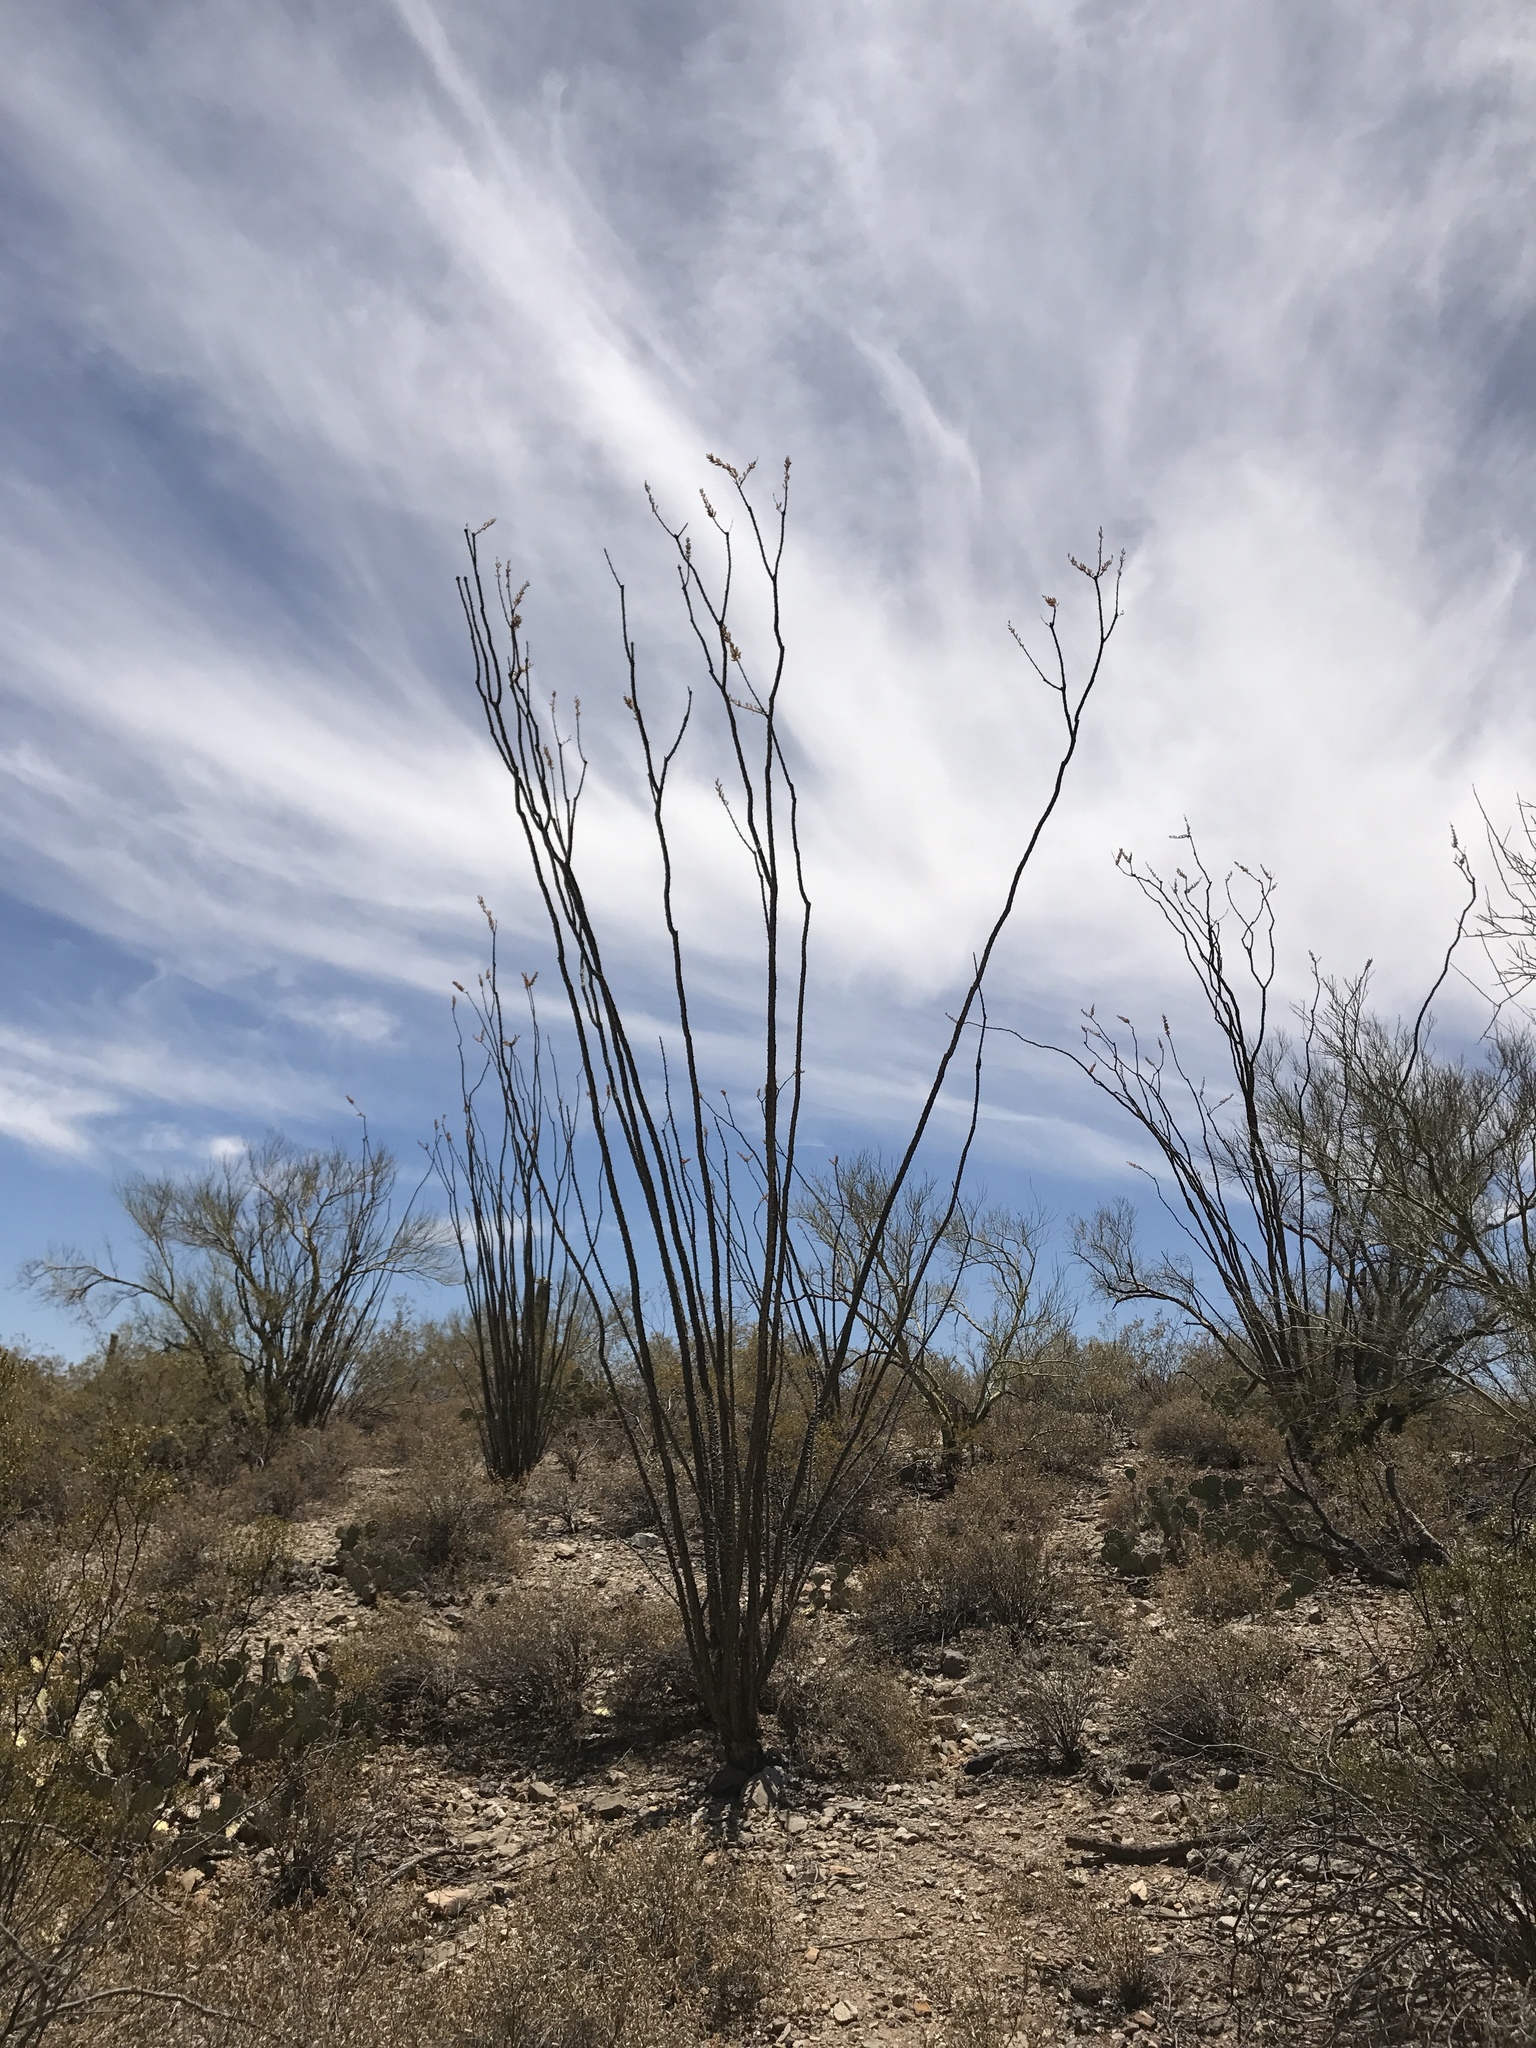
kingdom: Plantae
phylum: Tracheophyta
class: Magnoliopsida
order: Ericales
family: Fouquieriaceae
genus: Fouquieria
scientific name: Fouquieria splendens
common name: Vine-cactus
